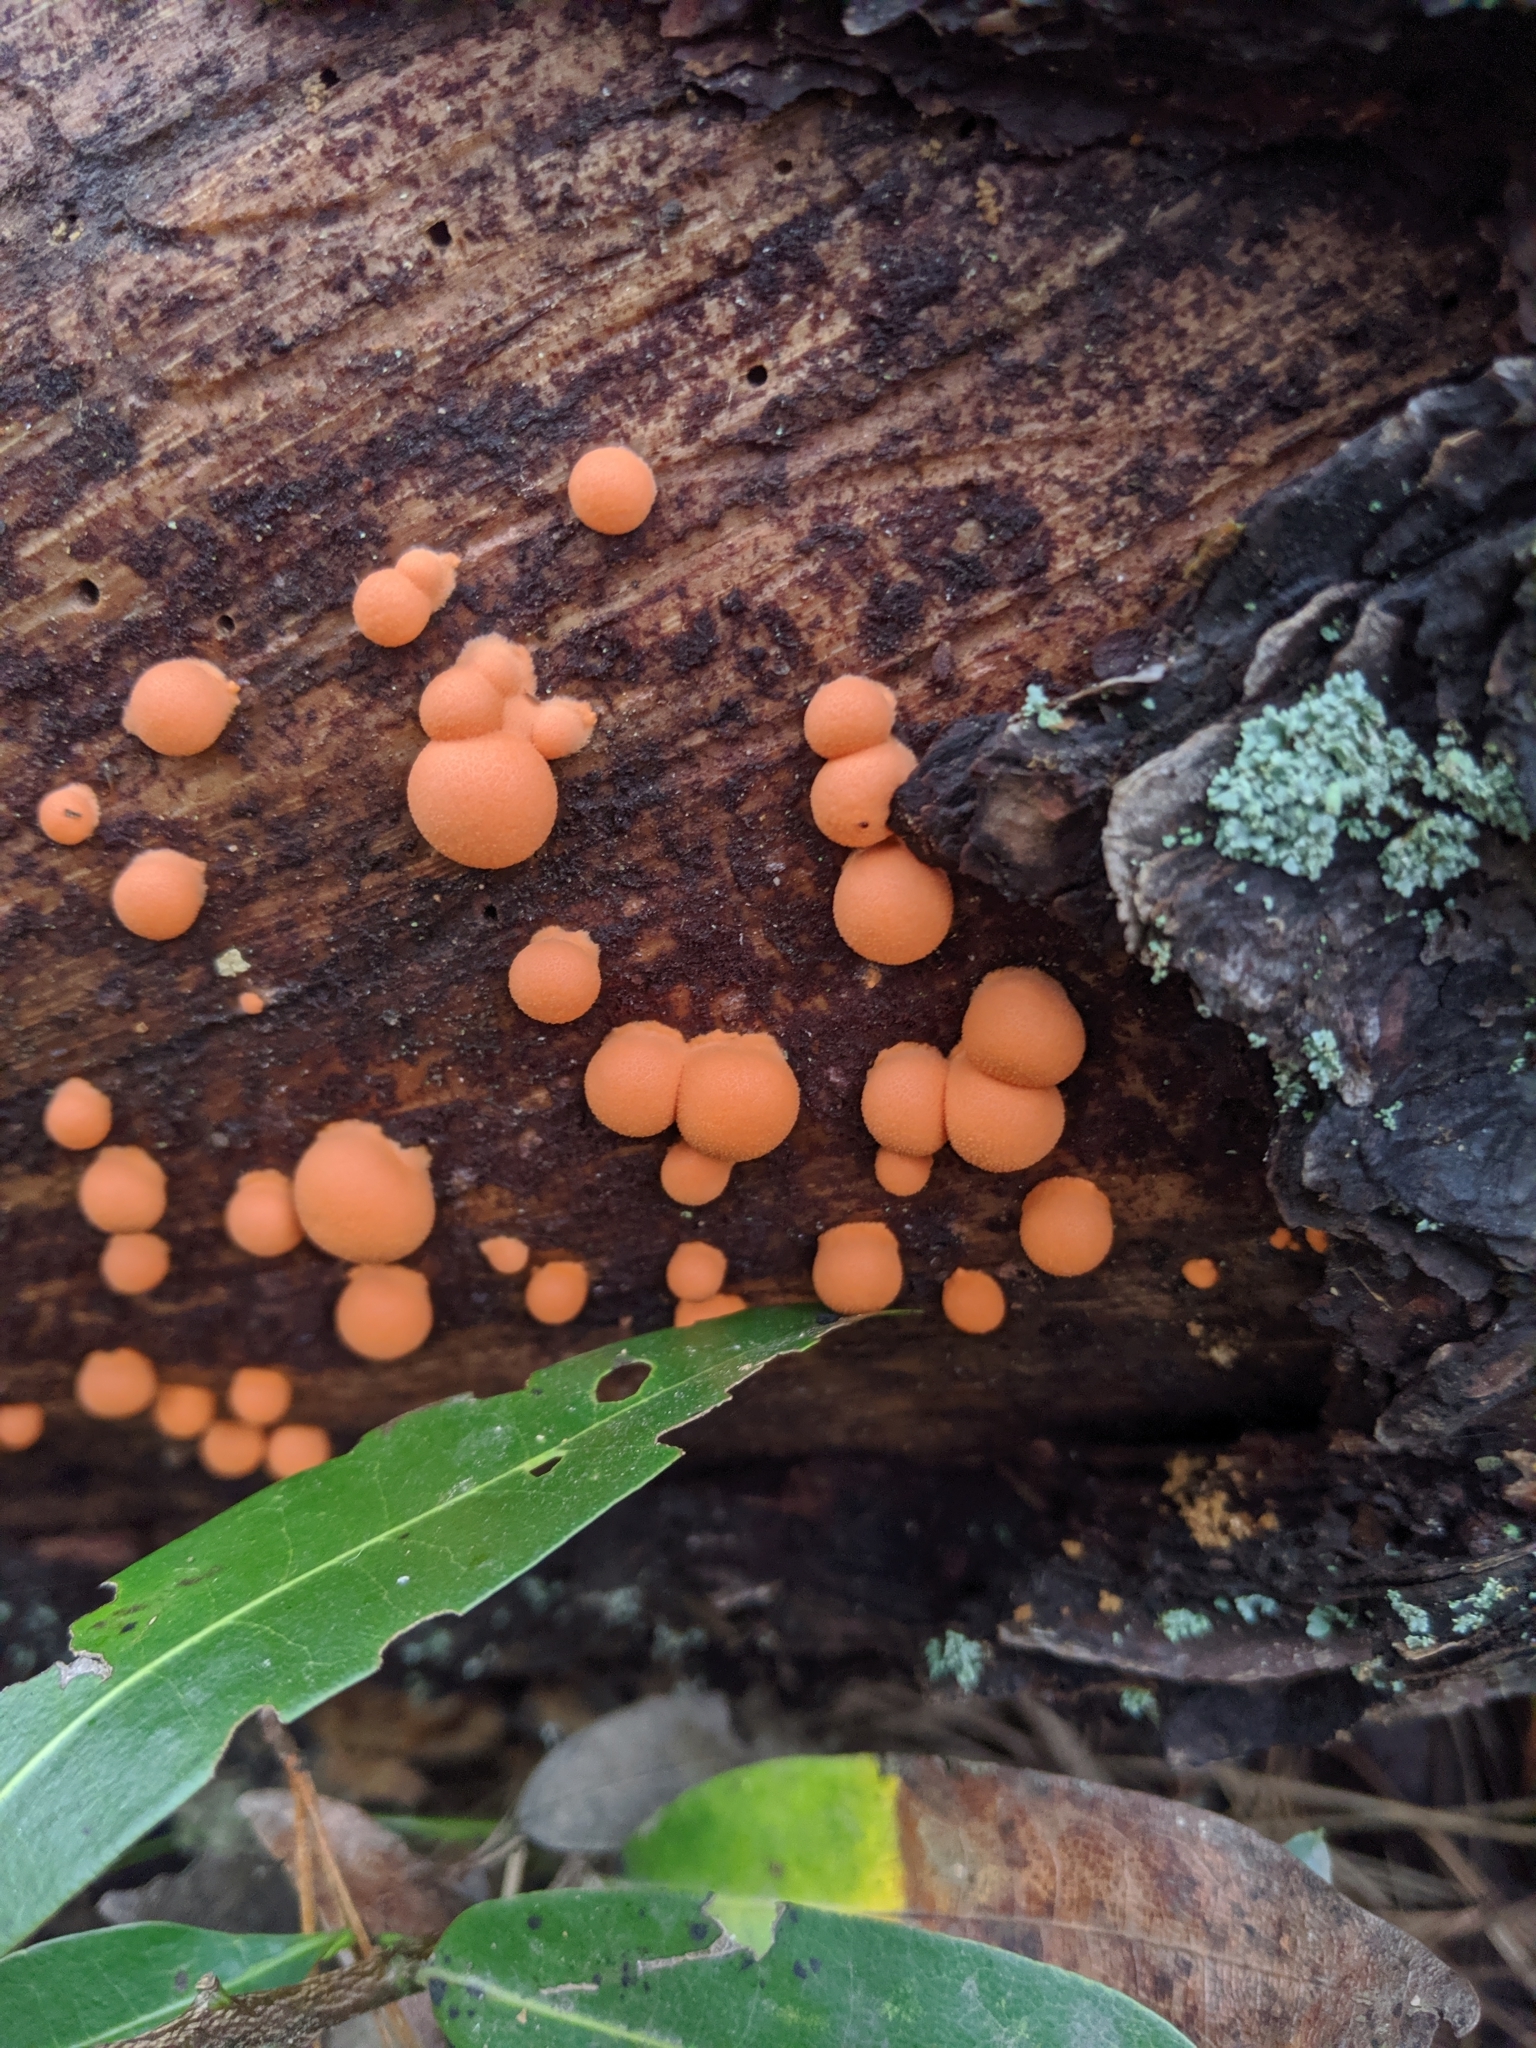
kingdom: Protozoa
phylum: Mycetozoa
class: Myxomycetes
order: Cribrariales
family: Tubiferaceae
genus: Lycogala
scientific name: Lycogala epidendrum
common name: Wolf's milk
